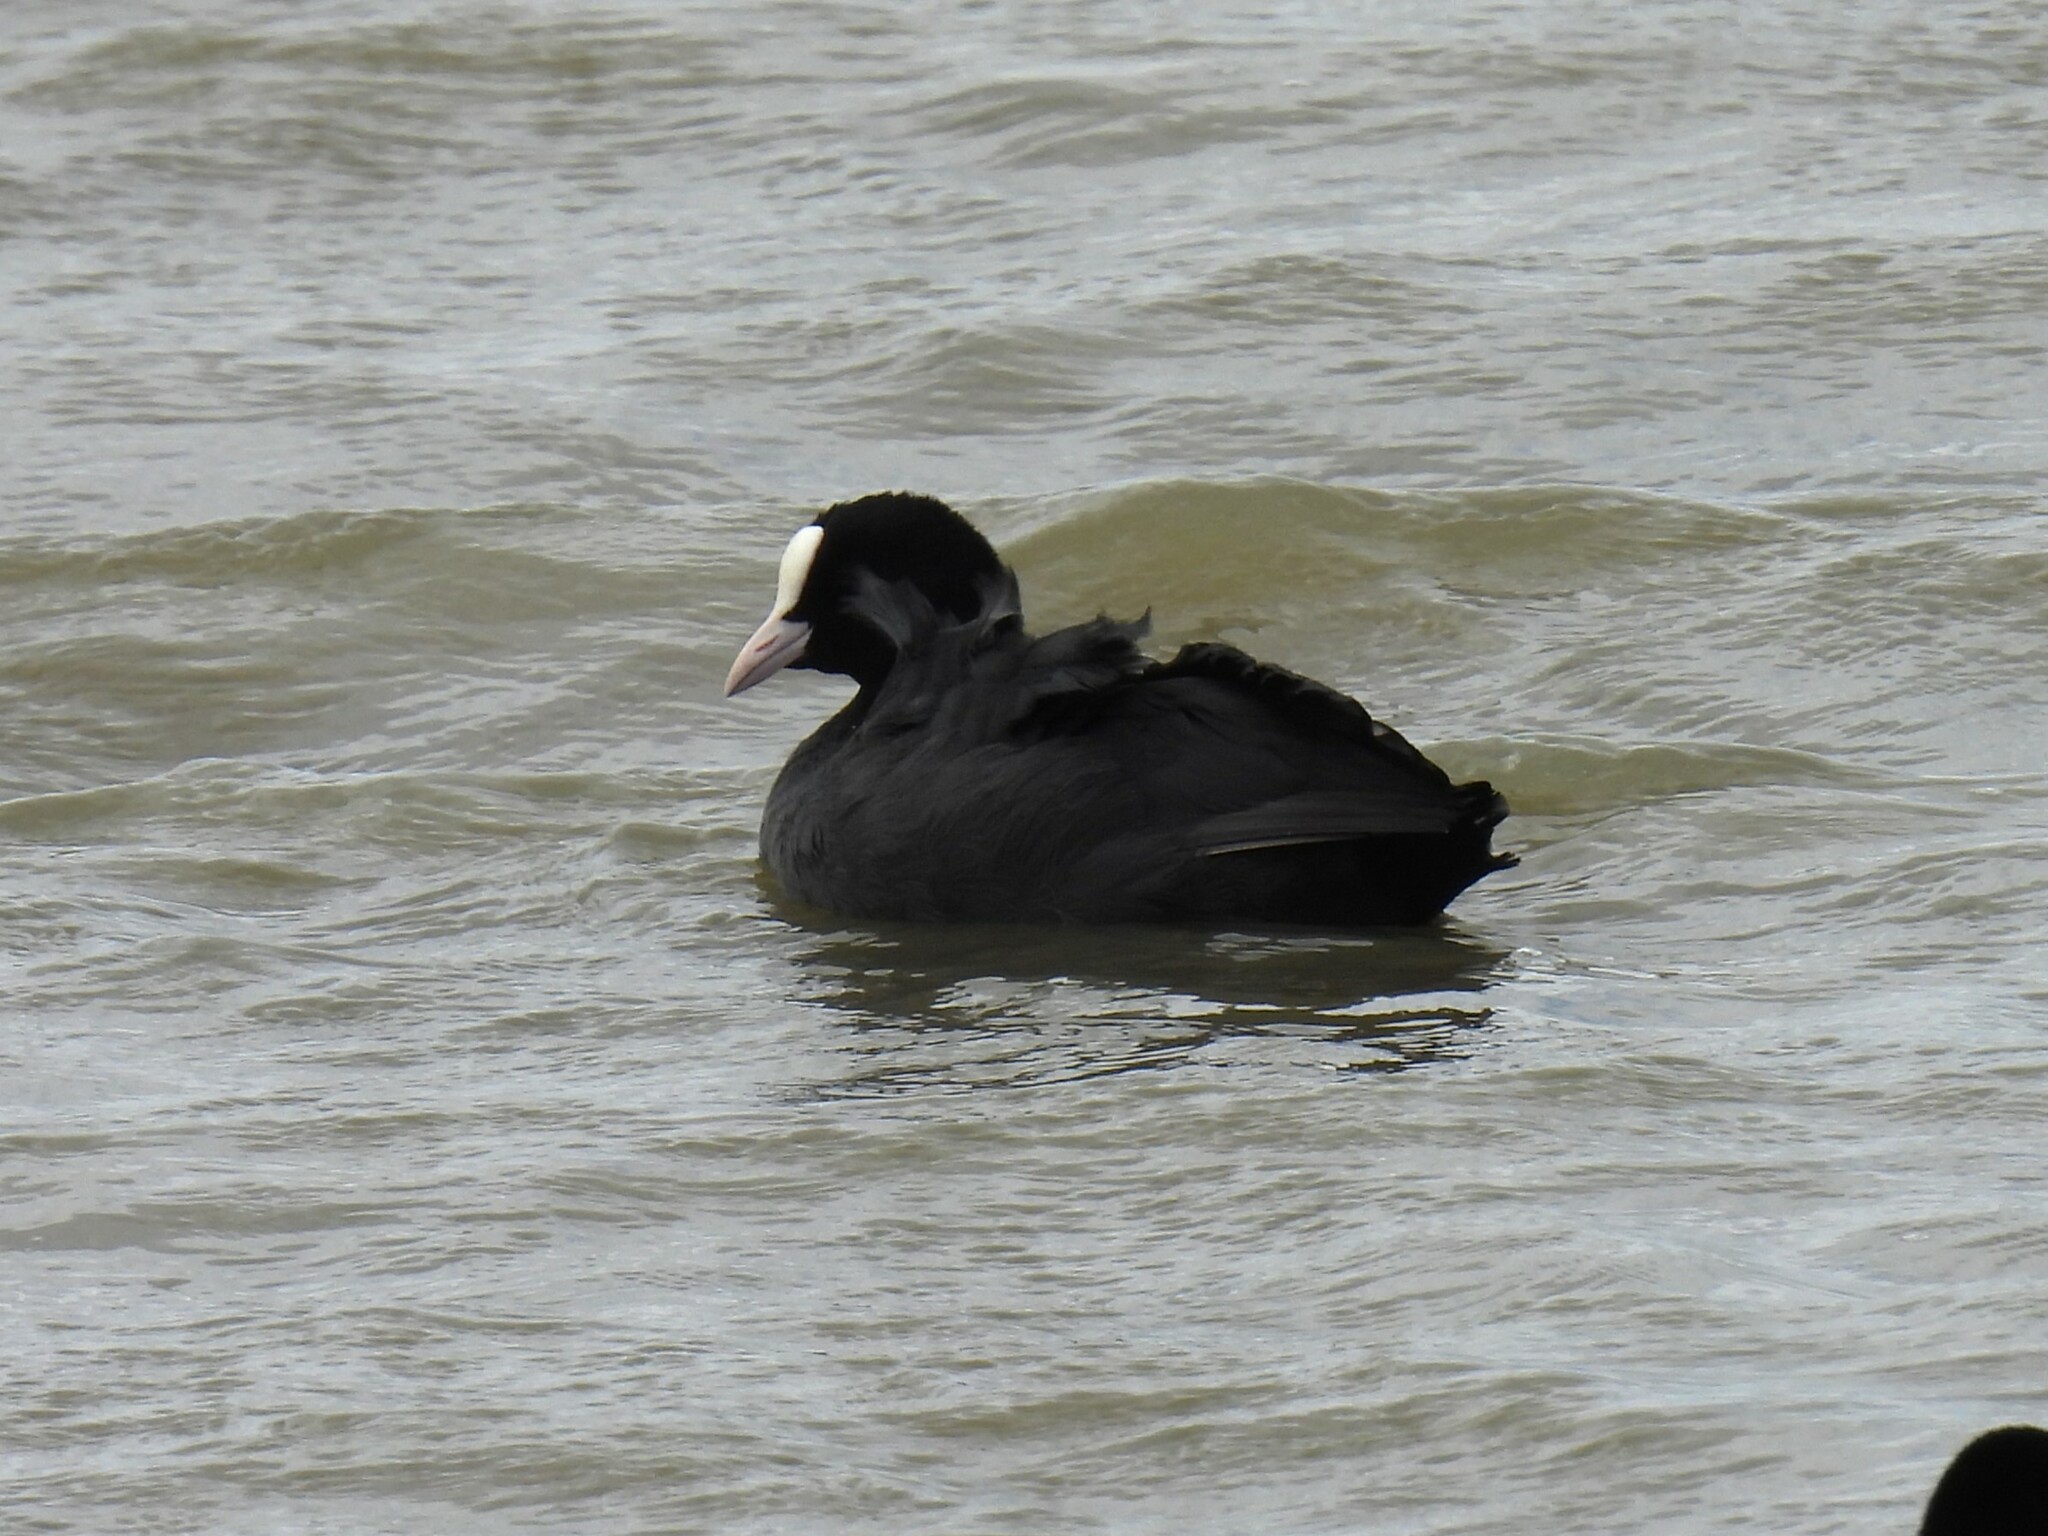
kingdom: Animalia
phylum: Chordata
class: Aves
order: Gruiformes
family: Rallidae
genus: Fulica
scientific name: Fulica atra
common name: Eurasian coot
